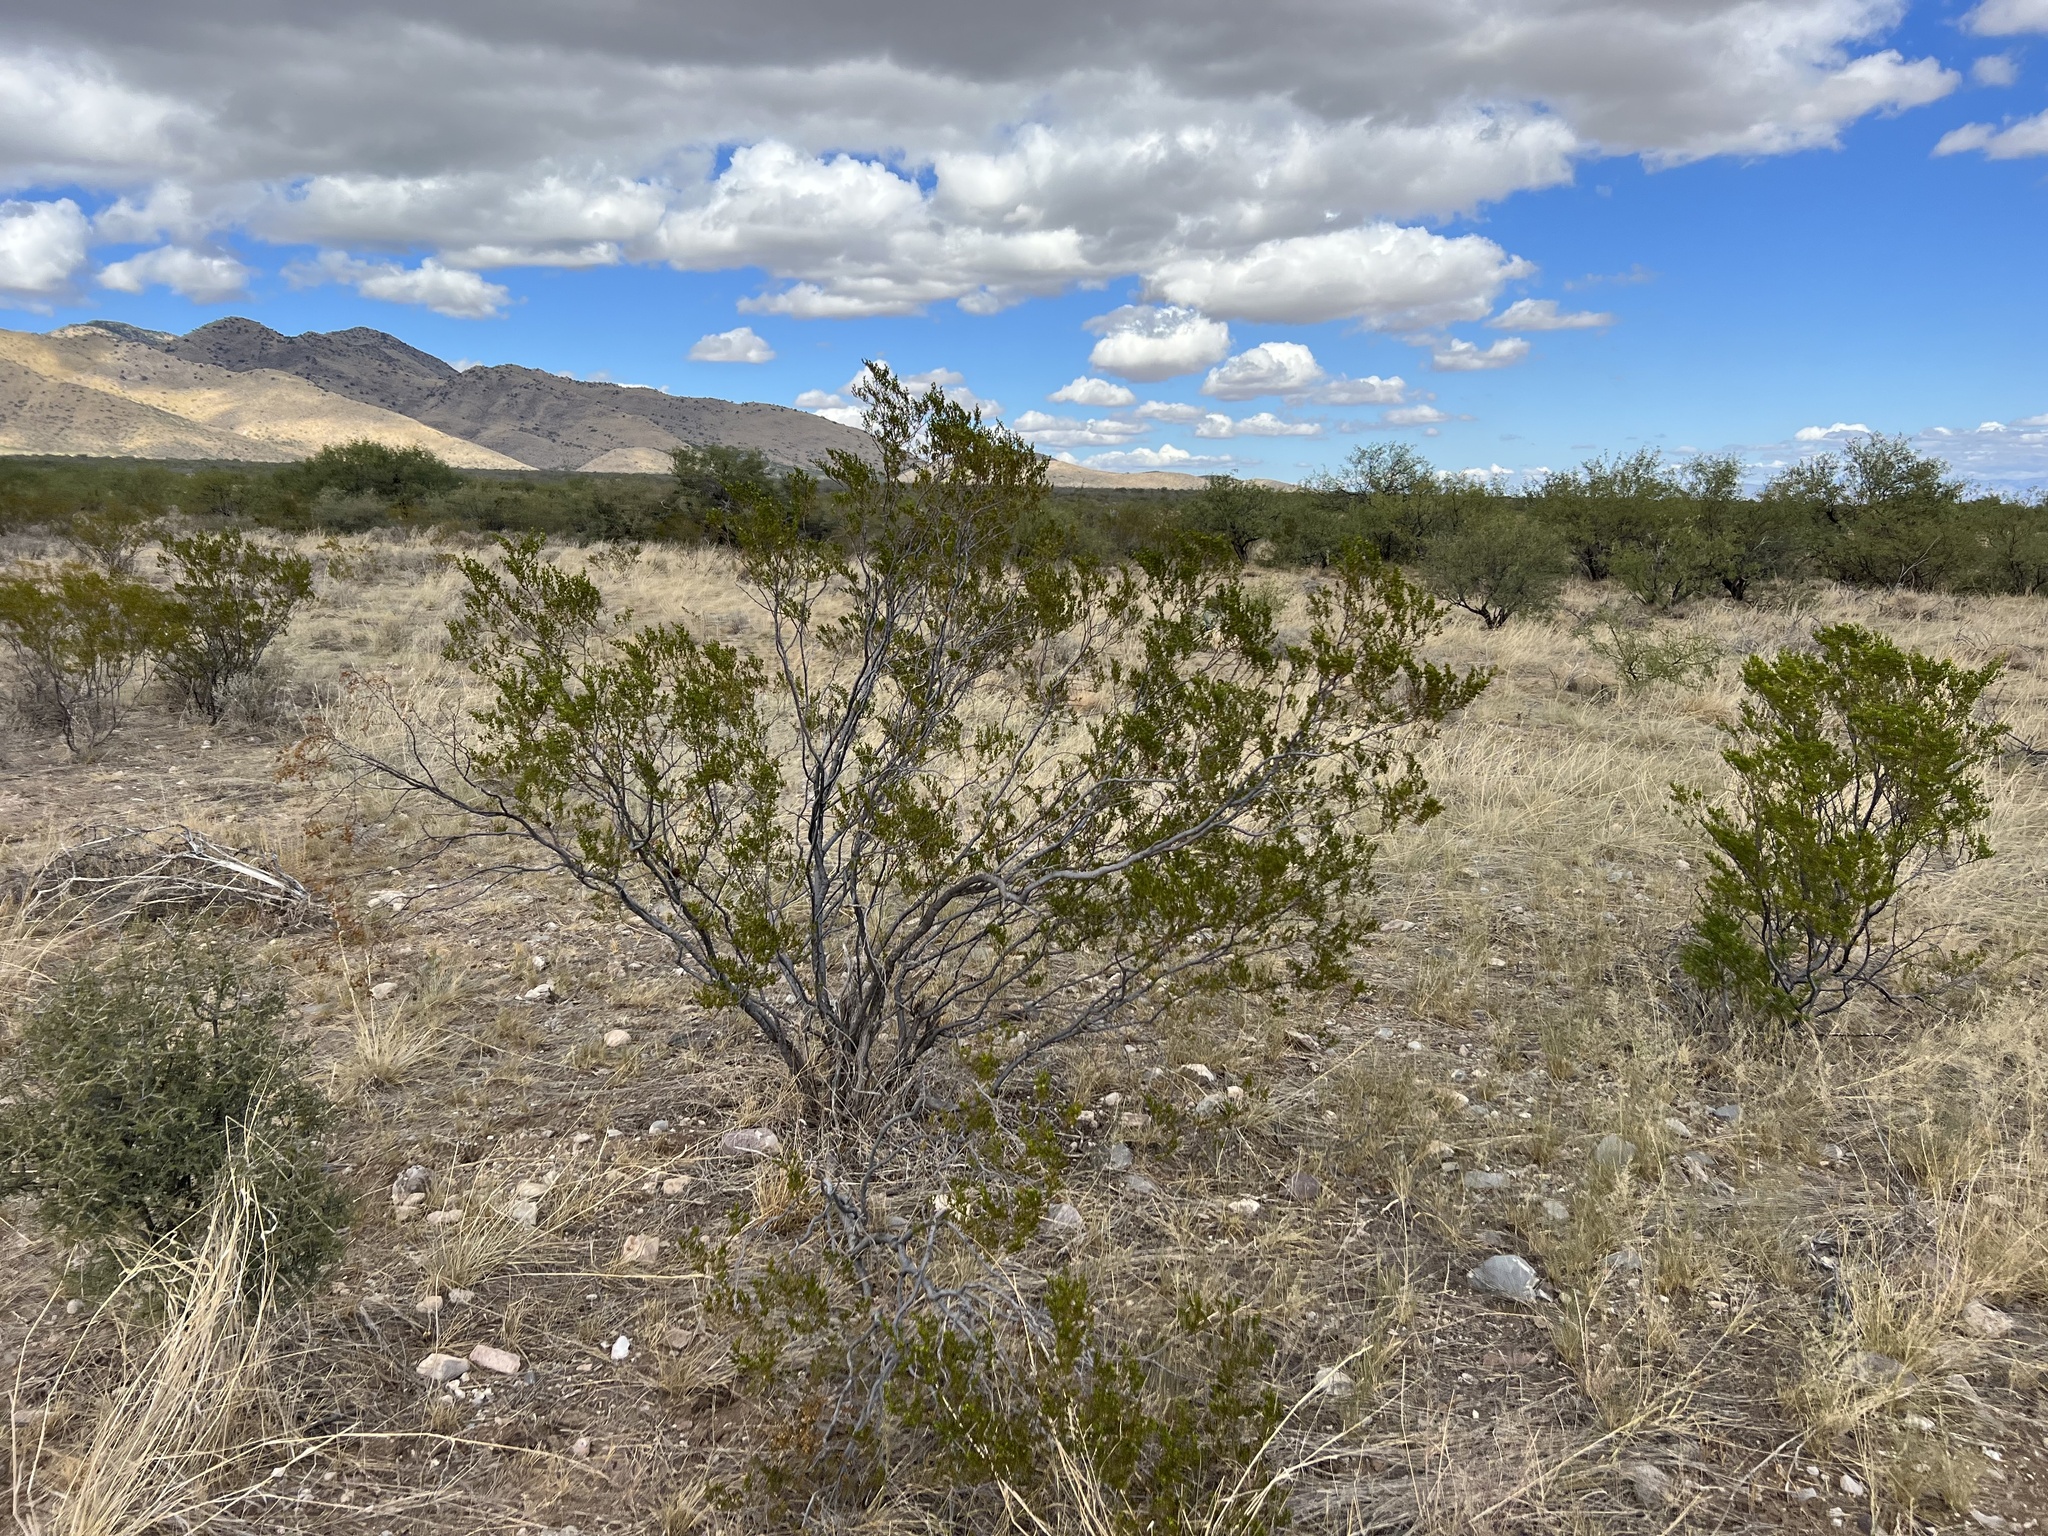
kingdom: Plantae
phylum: Tracheophyta
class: Magnoliopsida
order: Zygophyllales
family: Zygophyllaceae
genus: Larrea
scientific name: Larrea tridentata
